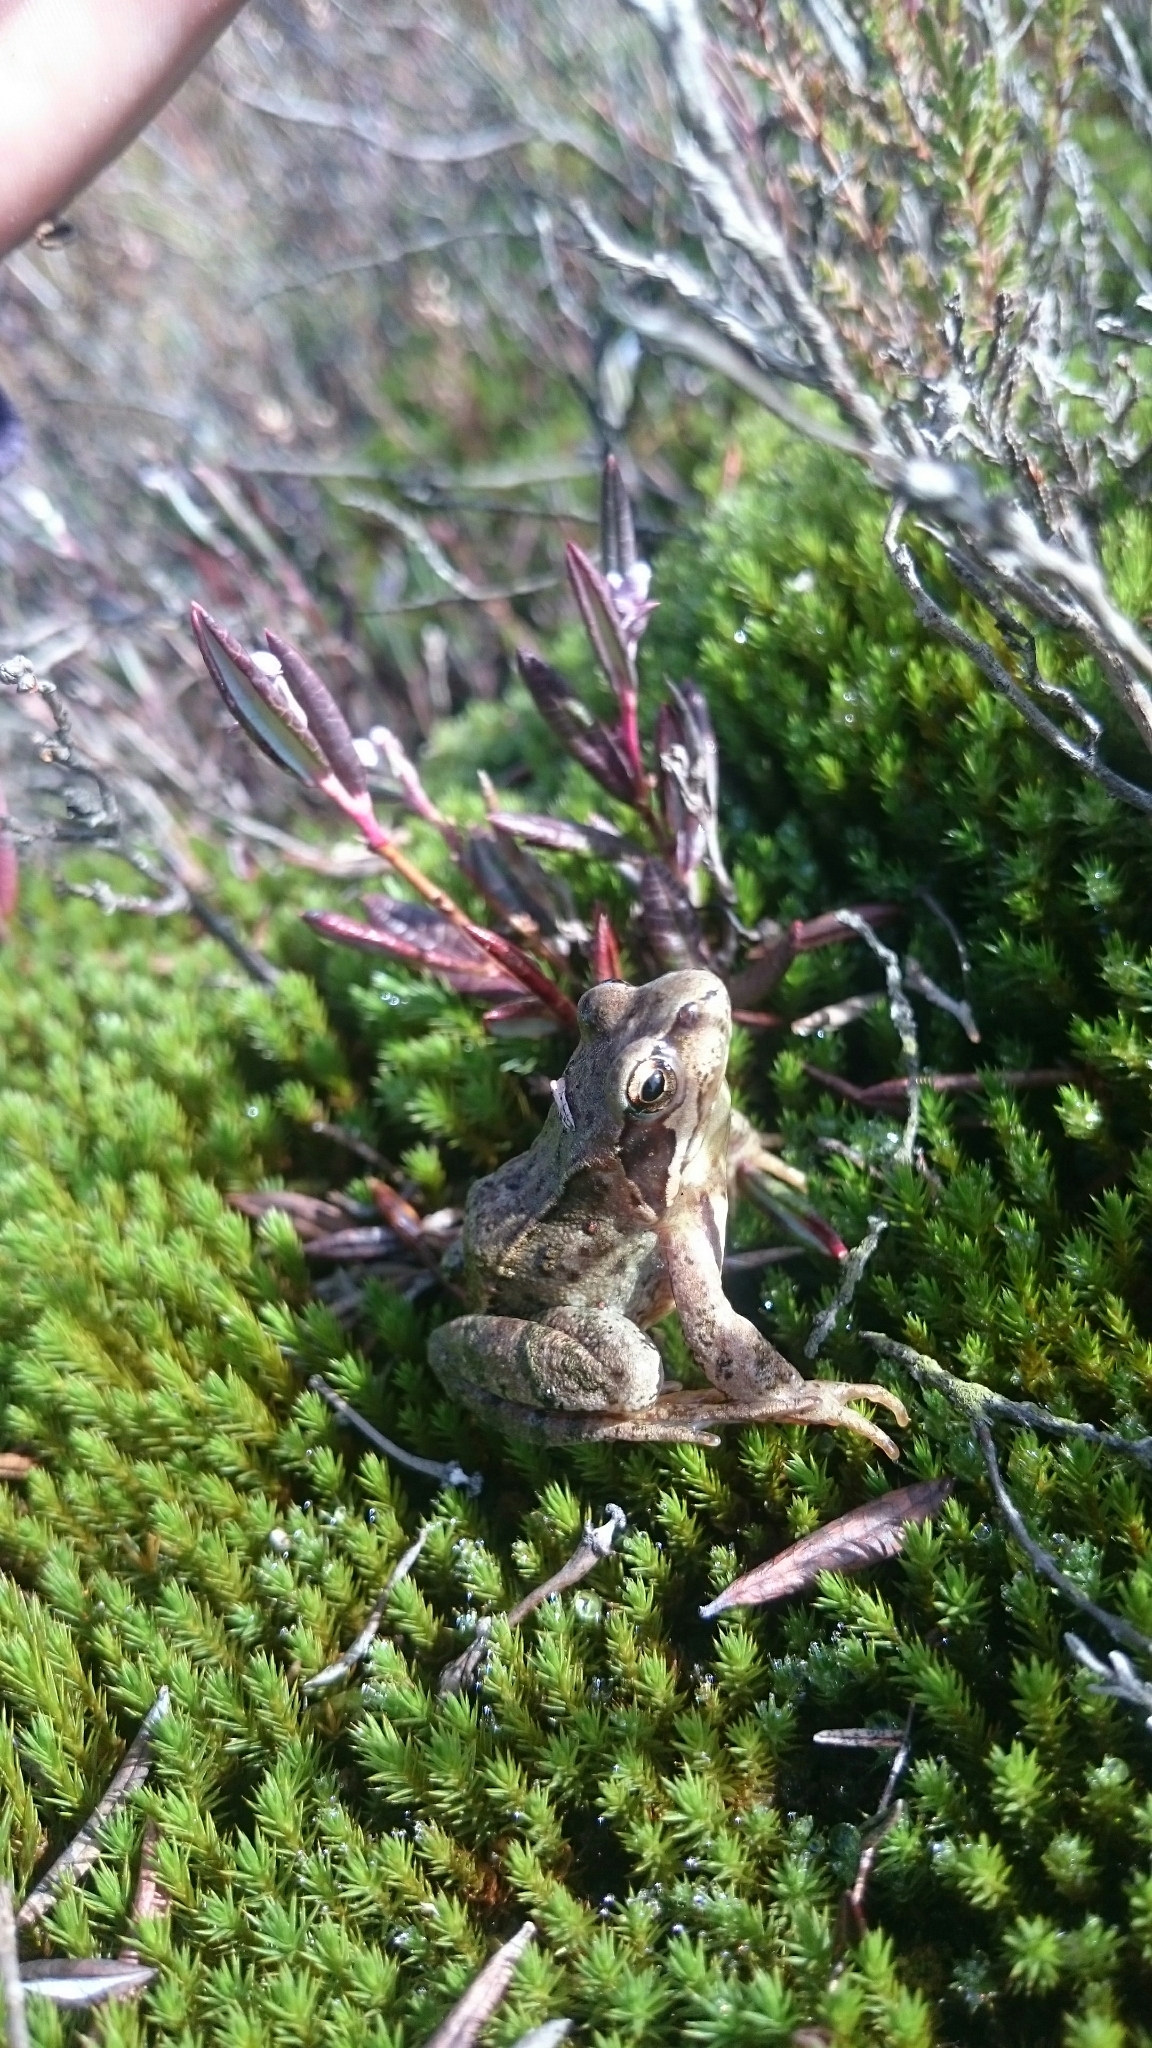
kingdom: Animalia
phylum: Chordata
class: Amphibia
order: Anura
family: Ranidae
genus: Rana
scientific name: Rana temporaria
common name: Common frog
